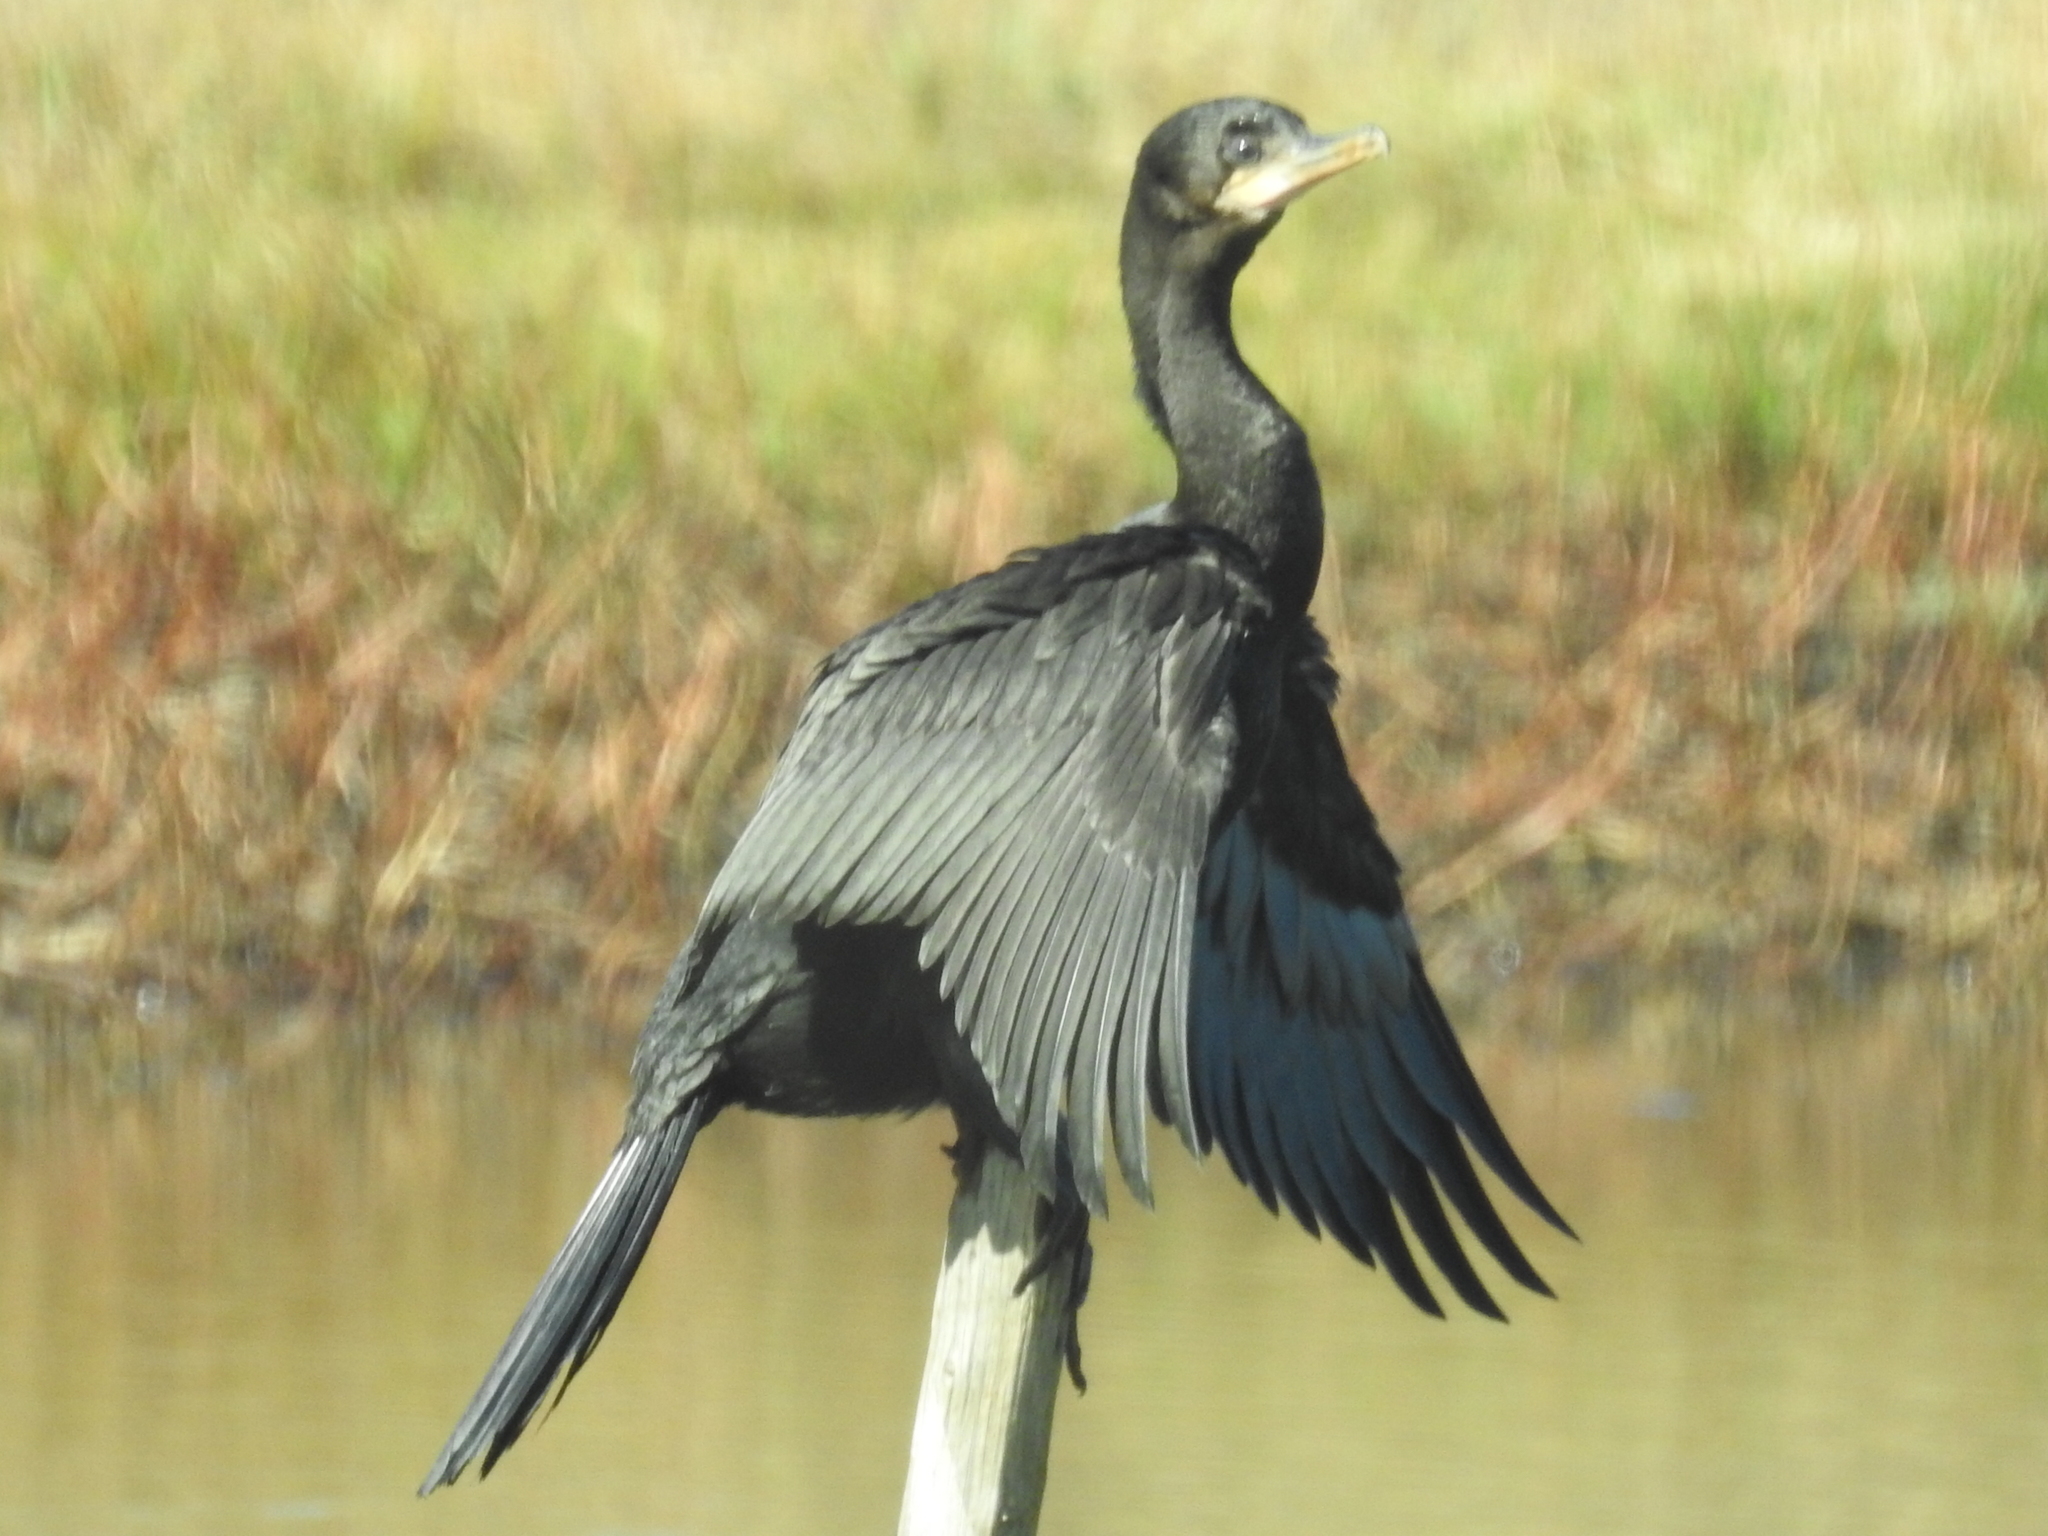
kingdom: Animalia
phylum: Chordata
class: Aves
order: Suliformes
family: Phalacrocoracidae
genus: Phalacrocorax
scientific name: Phalacrocorax brasilianus
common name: Neotropic cormorant
